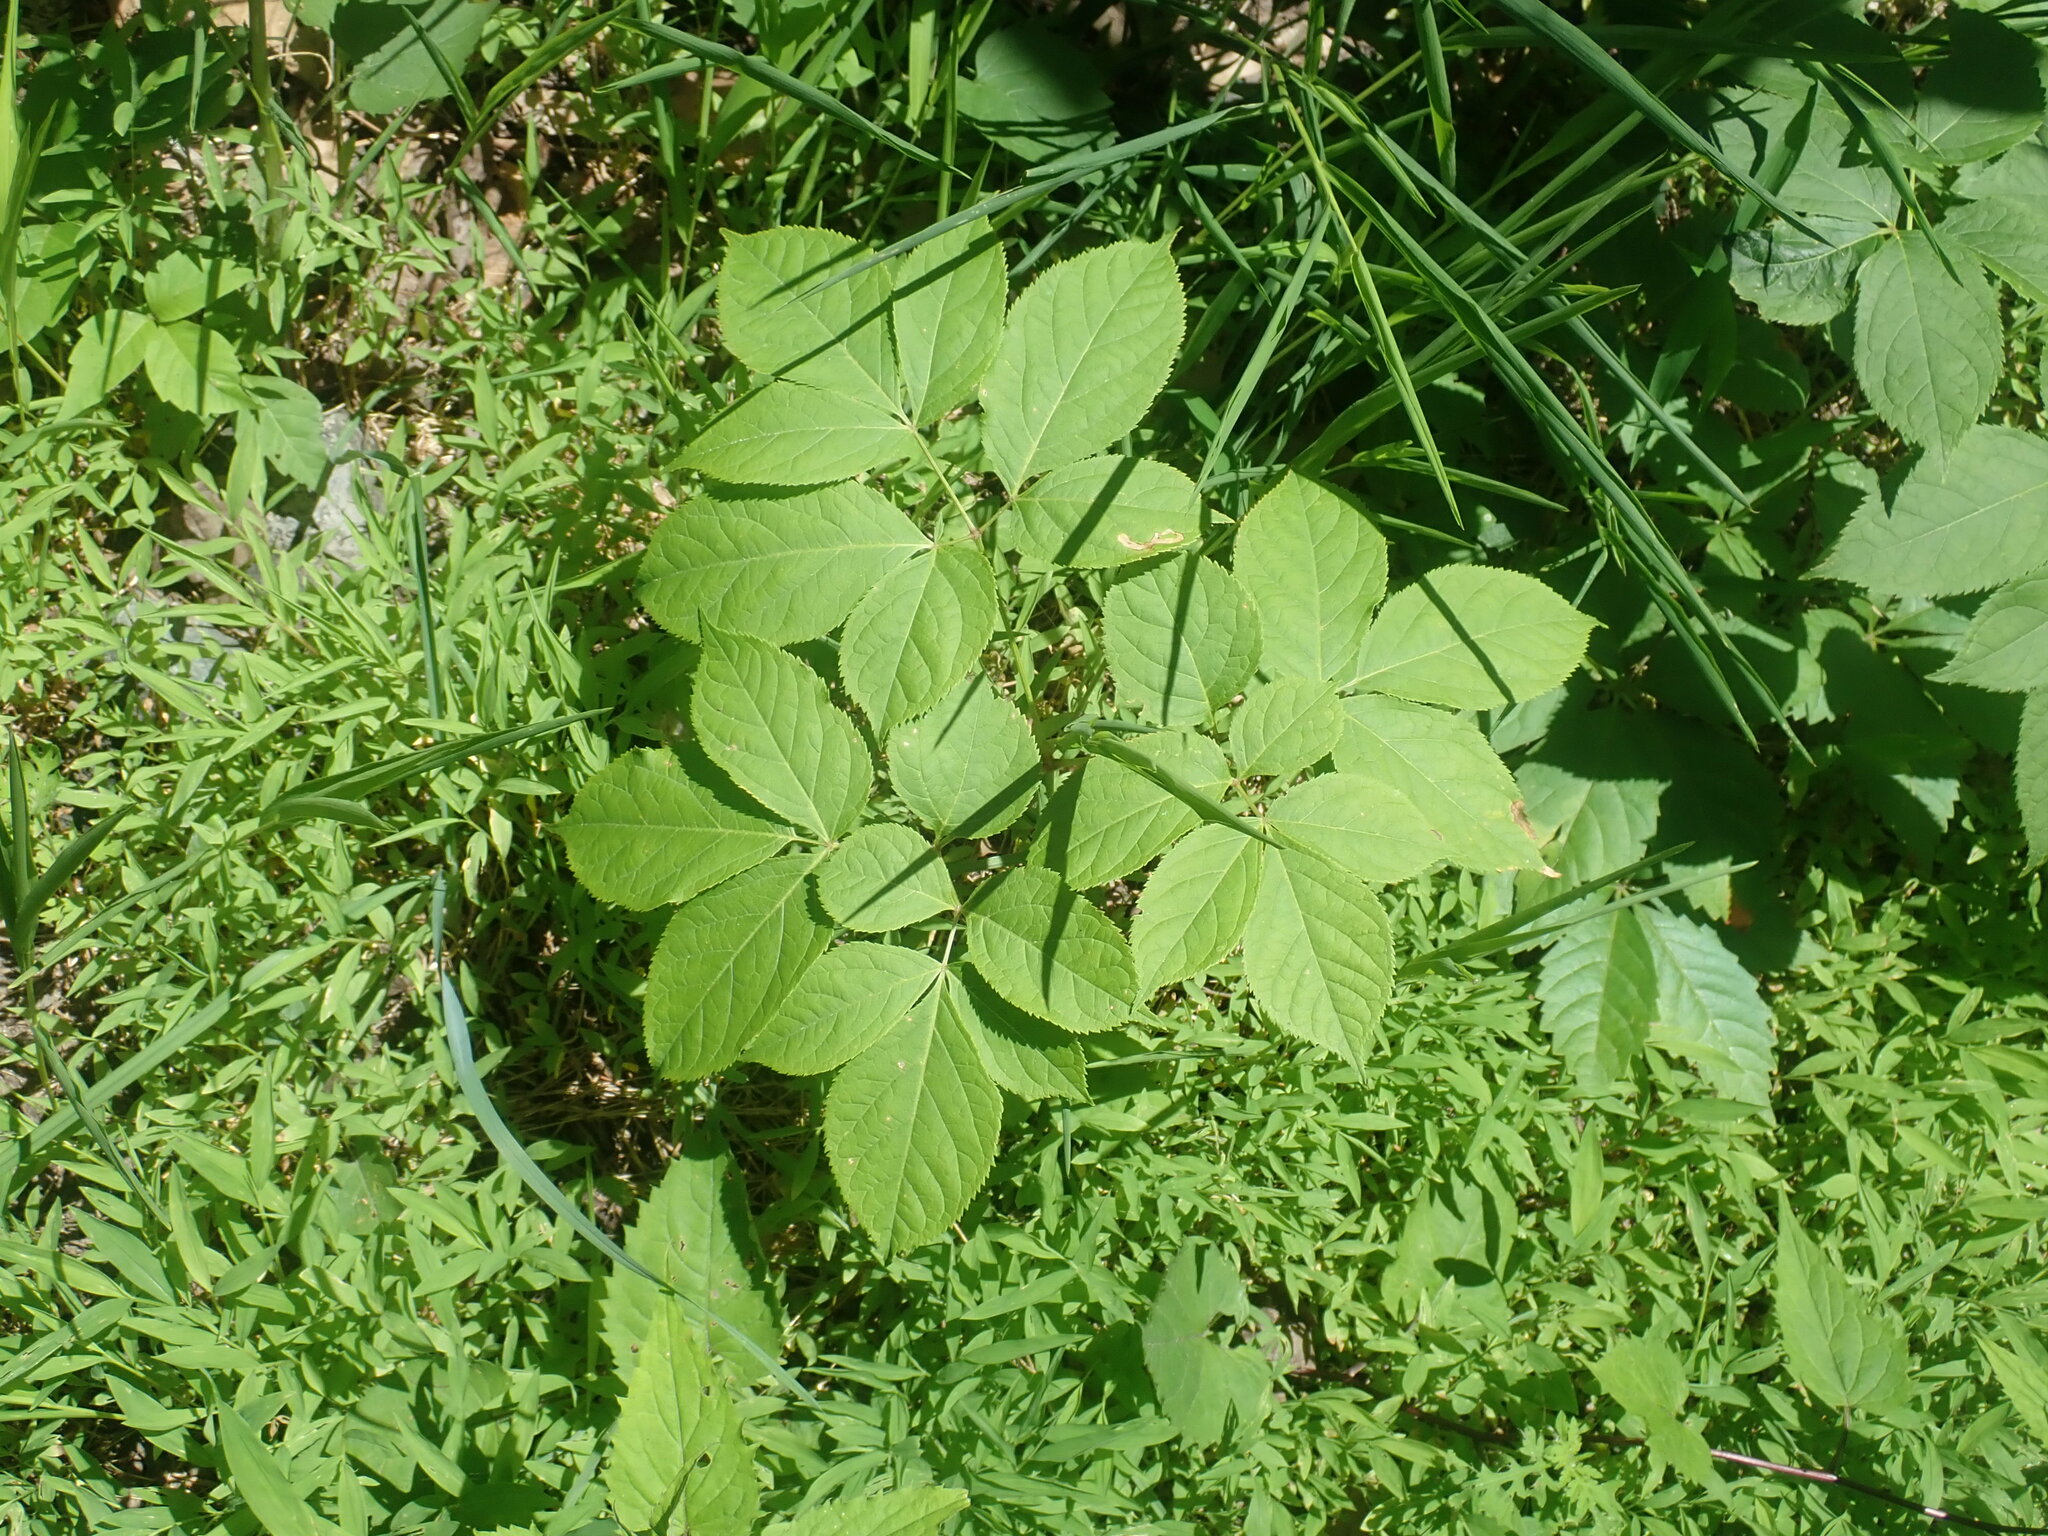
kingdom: Plantae
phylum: Tracheophyta
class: Magnoliopsida
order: Apiales
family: Araliaceae
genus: Aralia
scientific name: Aralia nudicaulis
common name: Wild sarsaparilla
